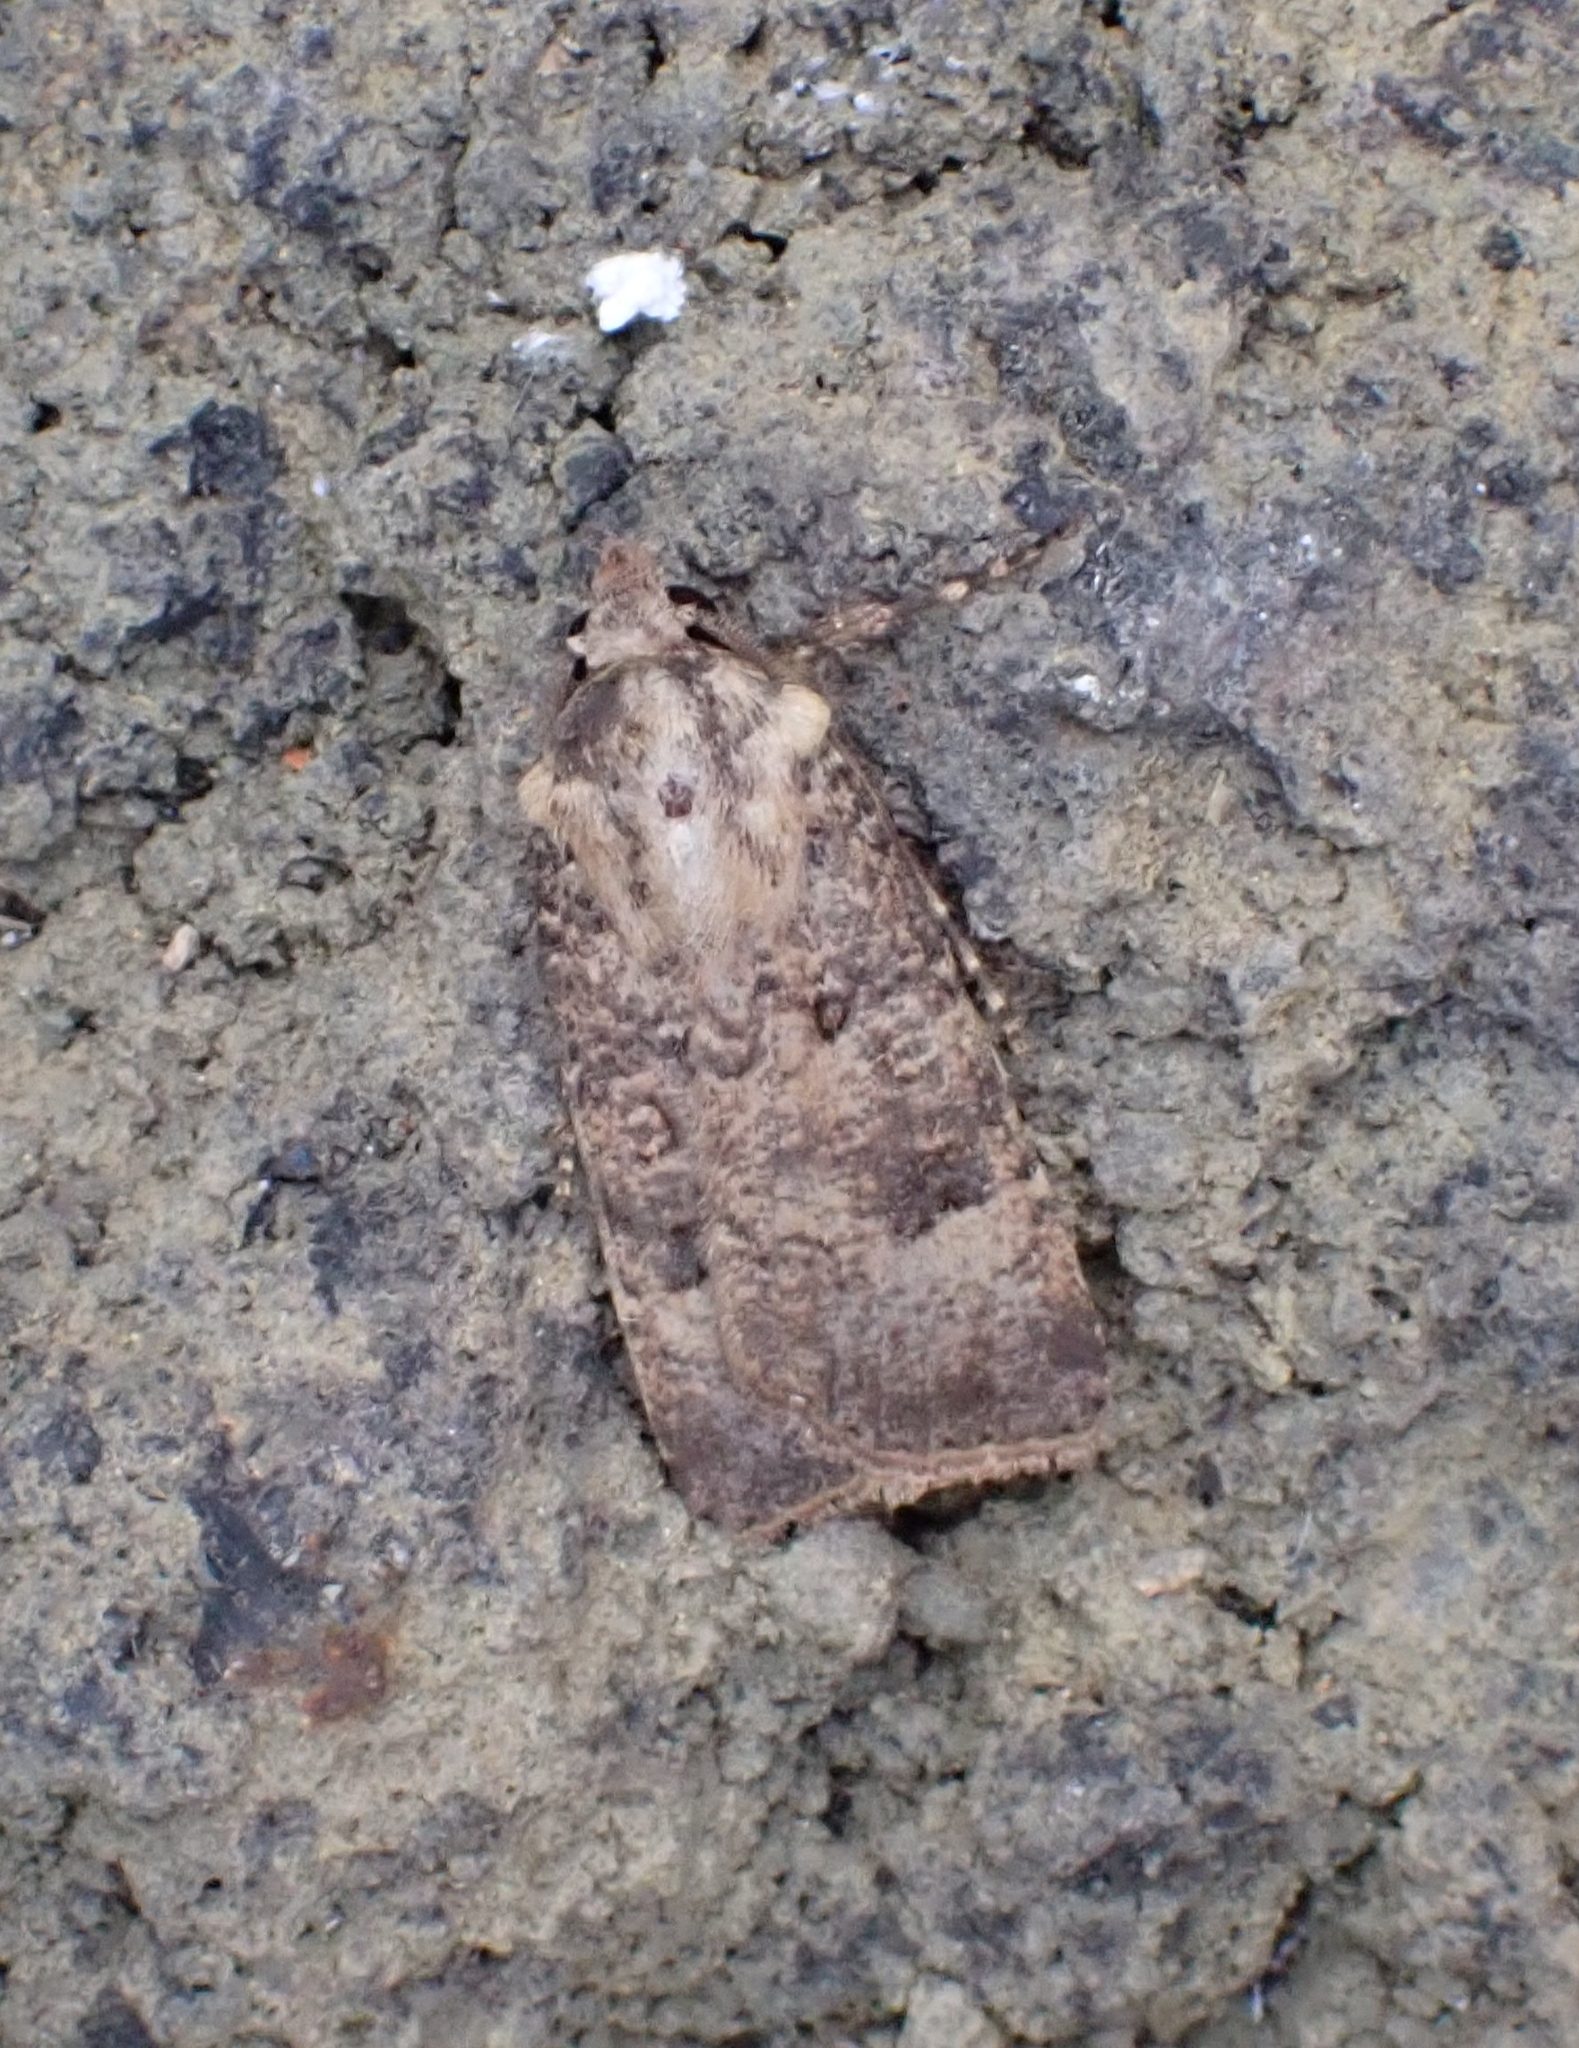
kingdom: Animalia
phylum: Arthropoda
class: Insecta
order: Lepidoptera
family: Noctuidae
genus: Agrotis
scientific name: Agrotis segetum
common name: Turnip moth
